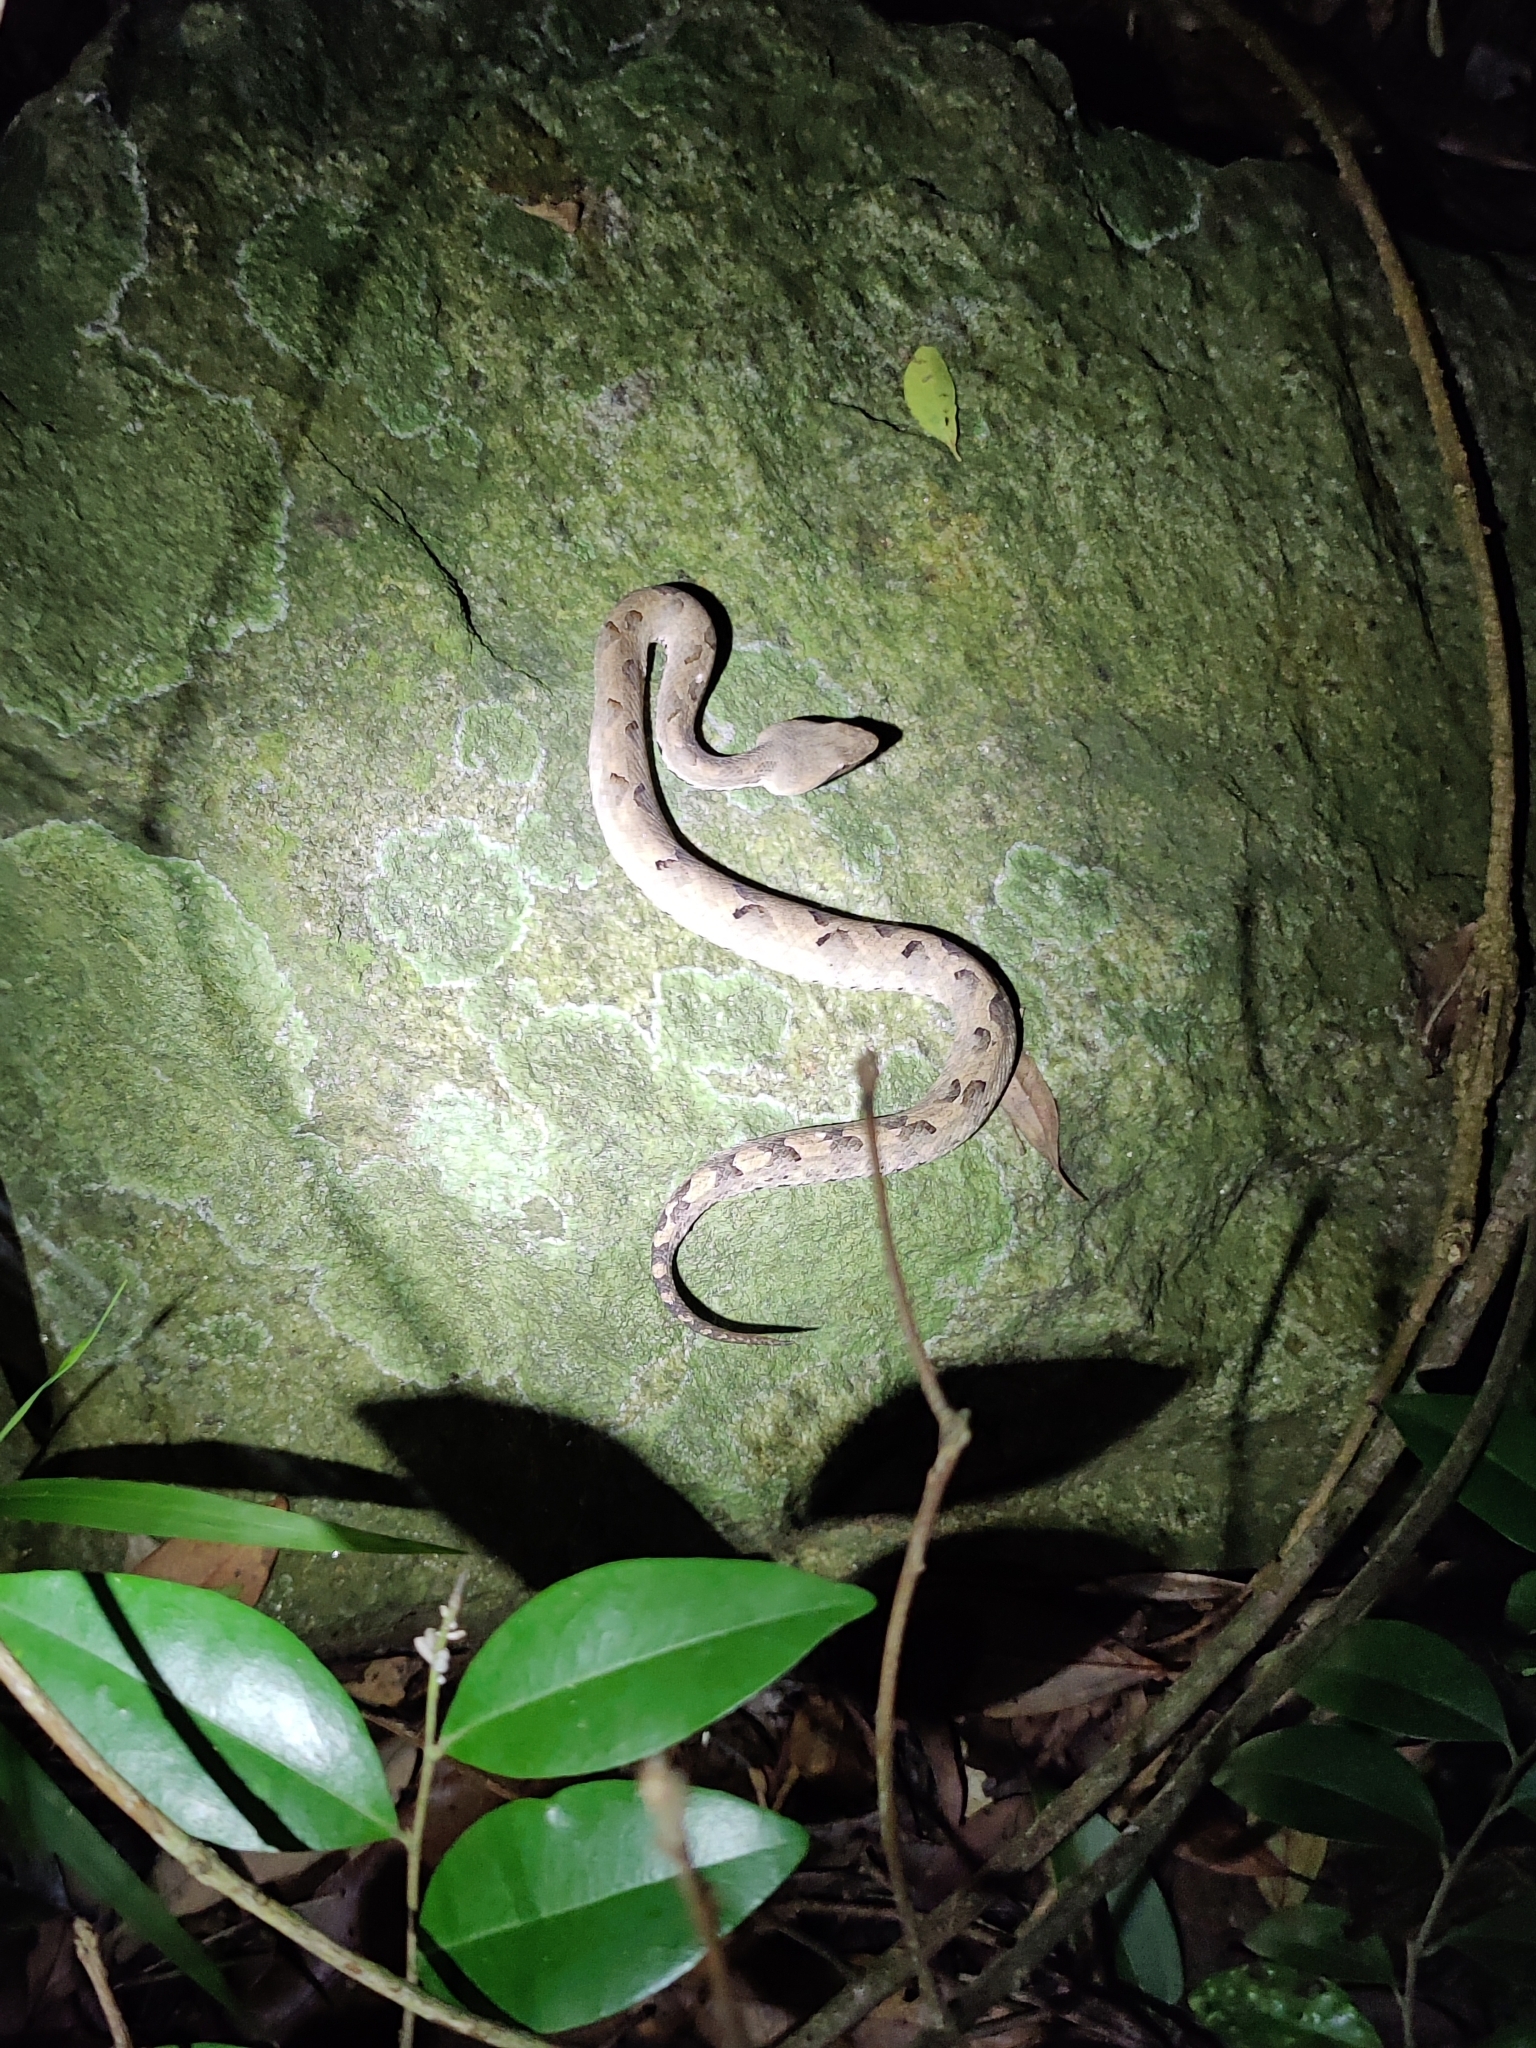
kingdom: Animalia
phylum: Chordata
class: Squamata
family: Viperidae
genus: Hypnale
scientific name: Hypnale hypnale
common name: Hump-nosed moccasin
